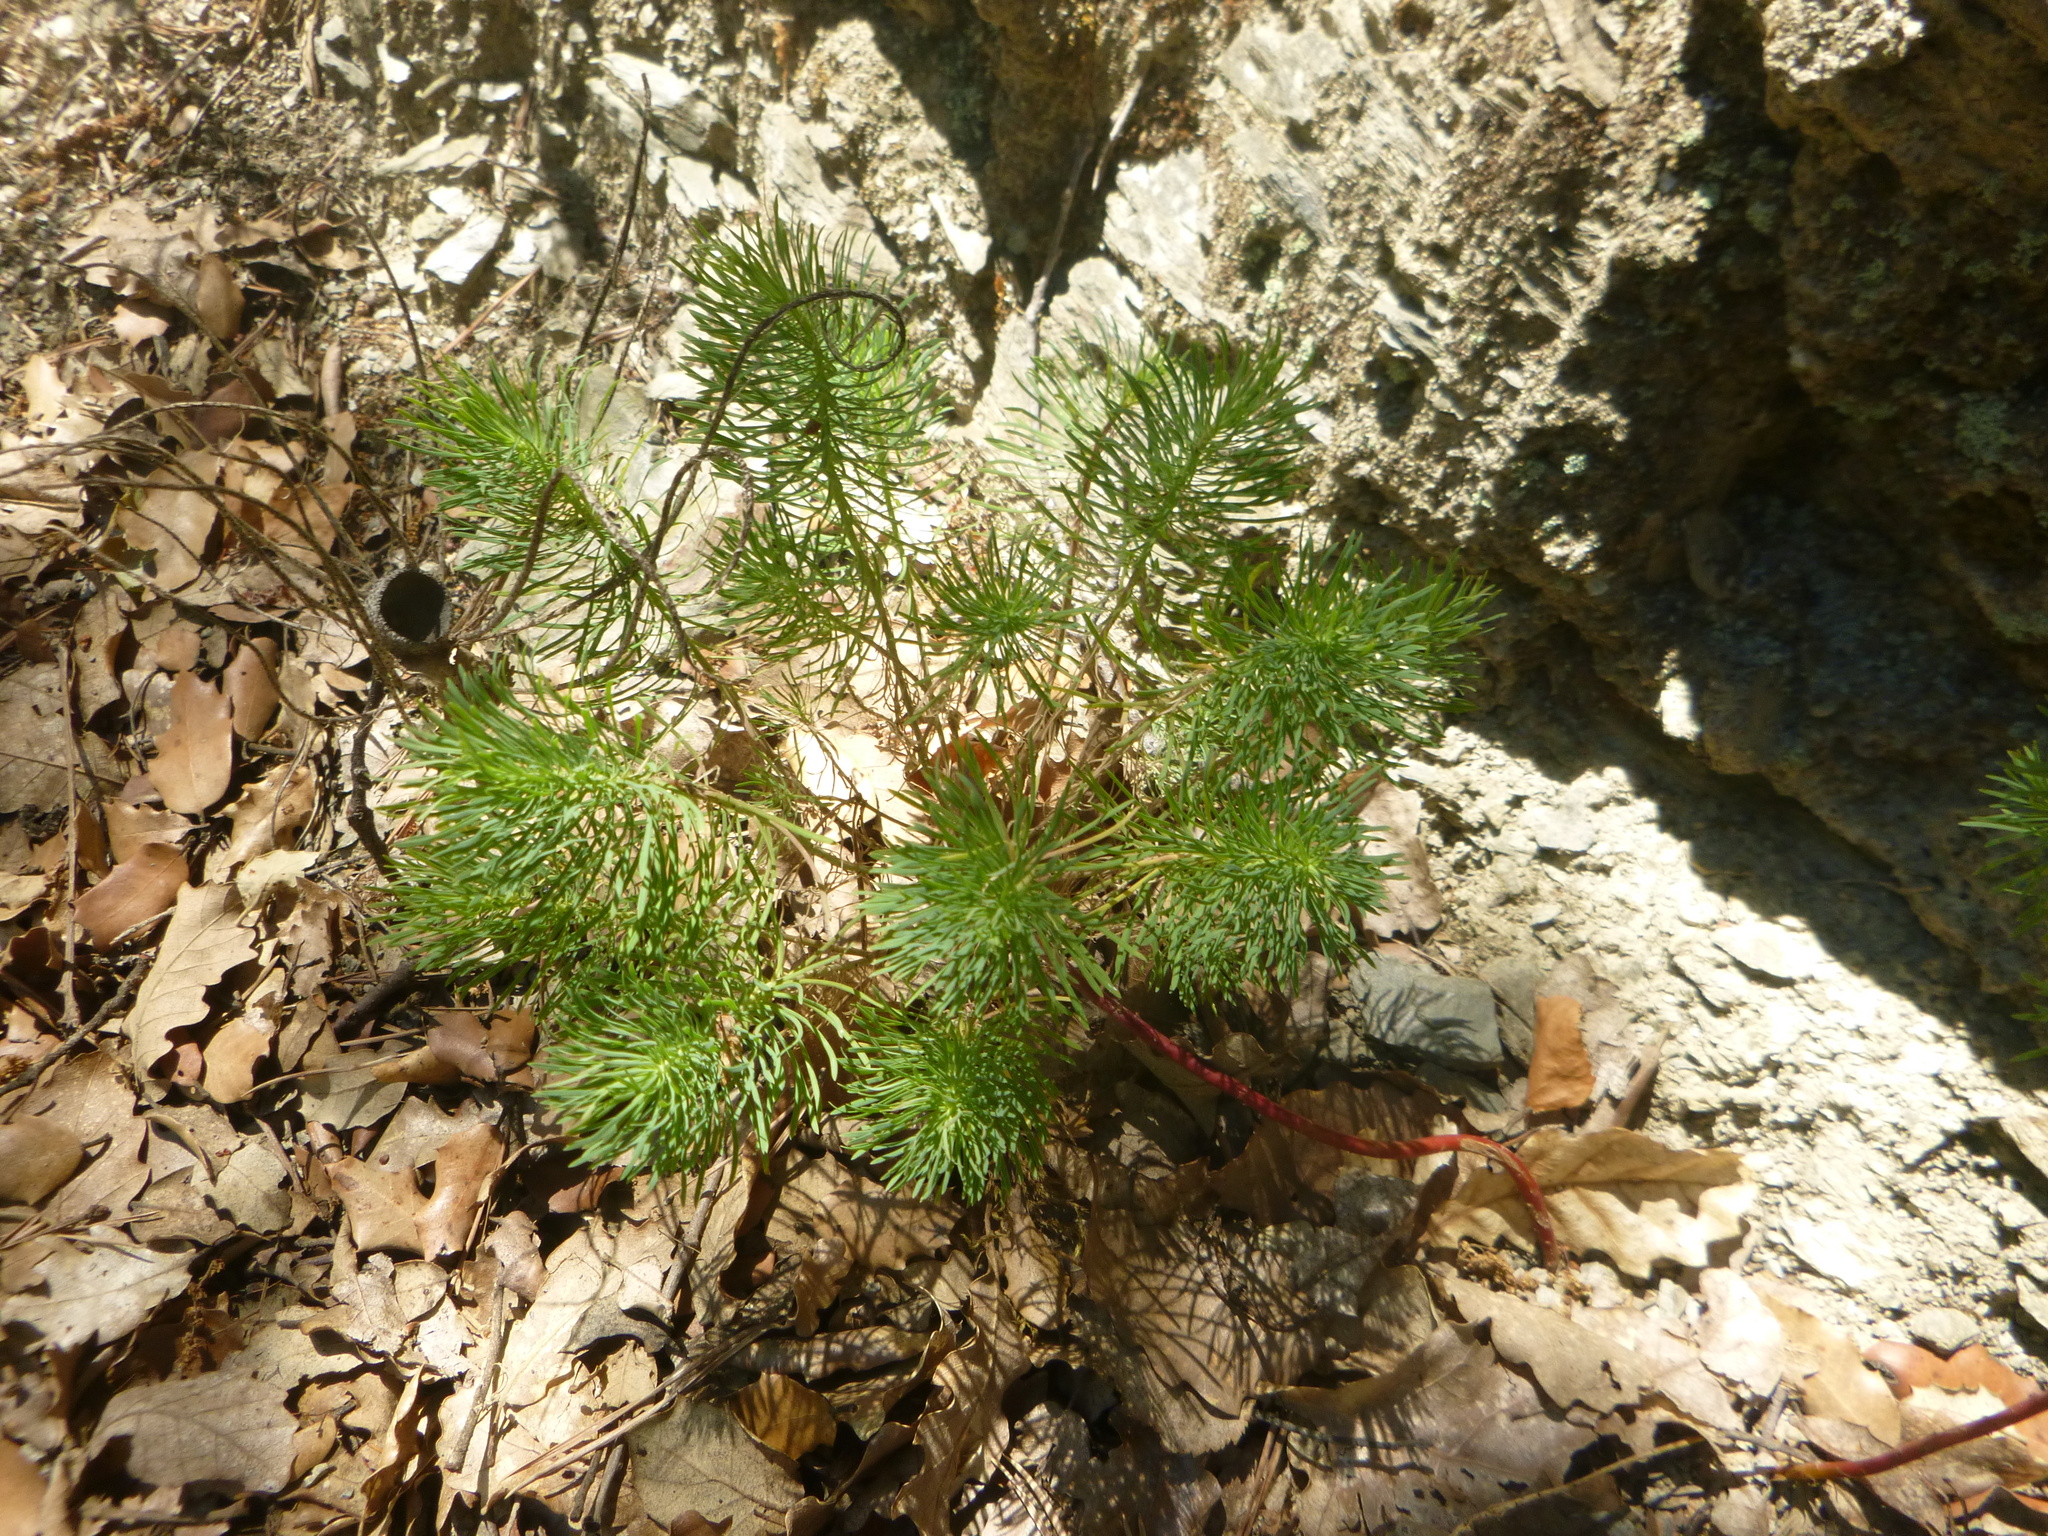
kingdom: Plantae
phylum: Tracheophyta
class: Magnoliopsida
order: Malpighiales
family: Euphorbiaceae
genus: Euphorbia
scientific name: Euphorbia cyparissias
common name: Cypress spurge
